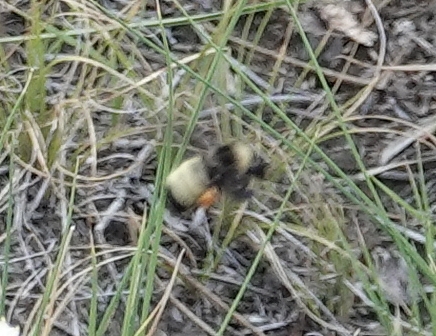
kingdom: Animalia
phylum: Arthropoda
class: Insecta
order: Hymenoptera
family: Apidae
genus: Bombus
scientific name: Bombus pensylvanicus
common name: Bumble bee
